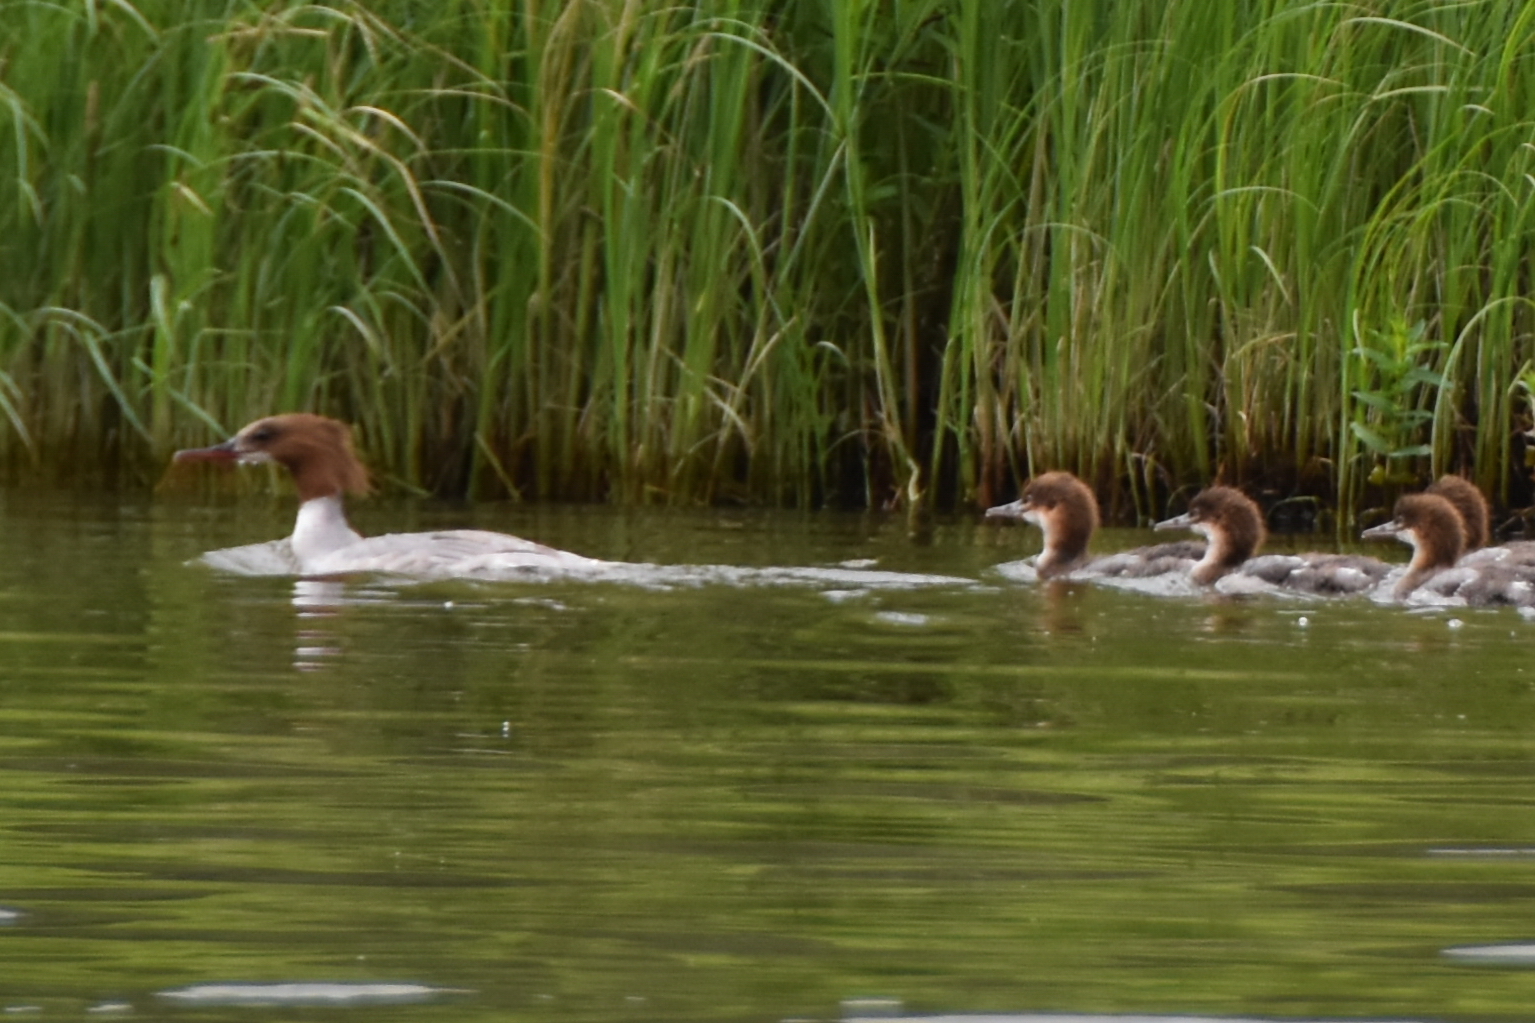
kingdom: Animalia
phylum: Chordata
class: Aves
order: Anseriformes
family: Anatidae
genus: Mergus
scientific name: Mergus merganser
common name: Common merganser
